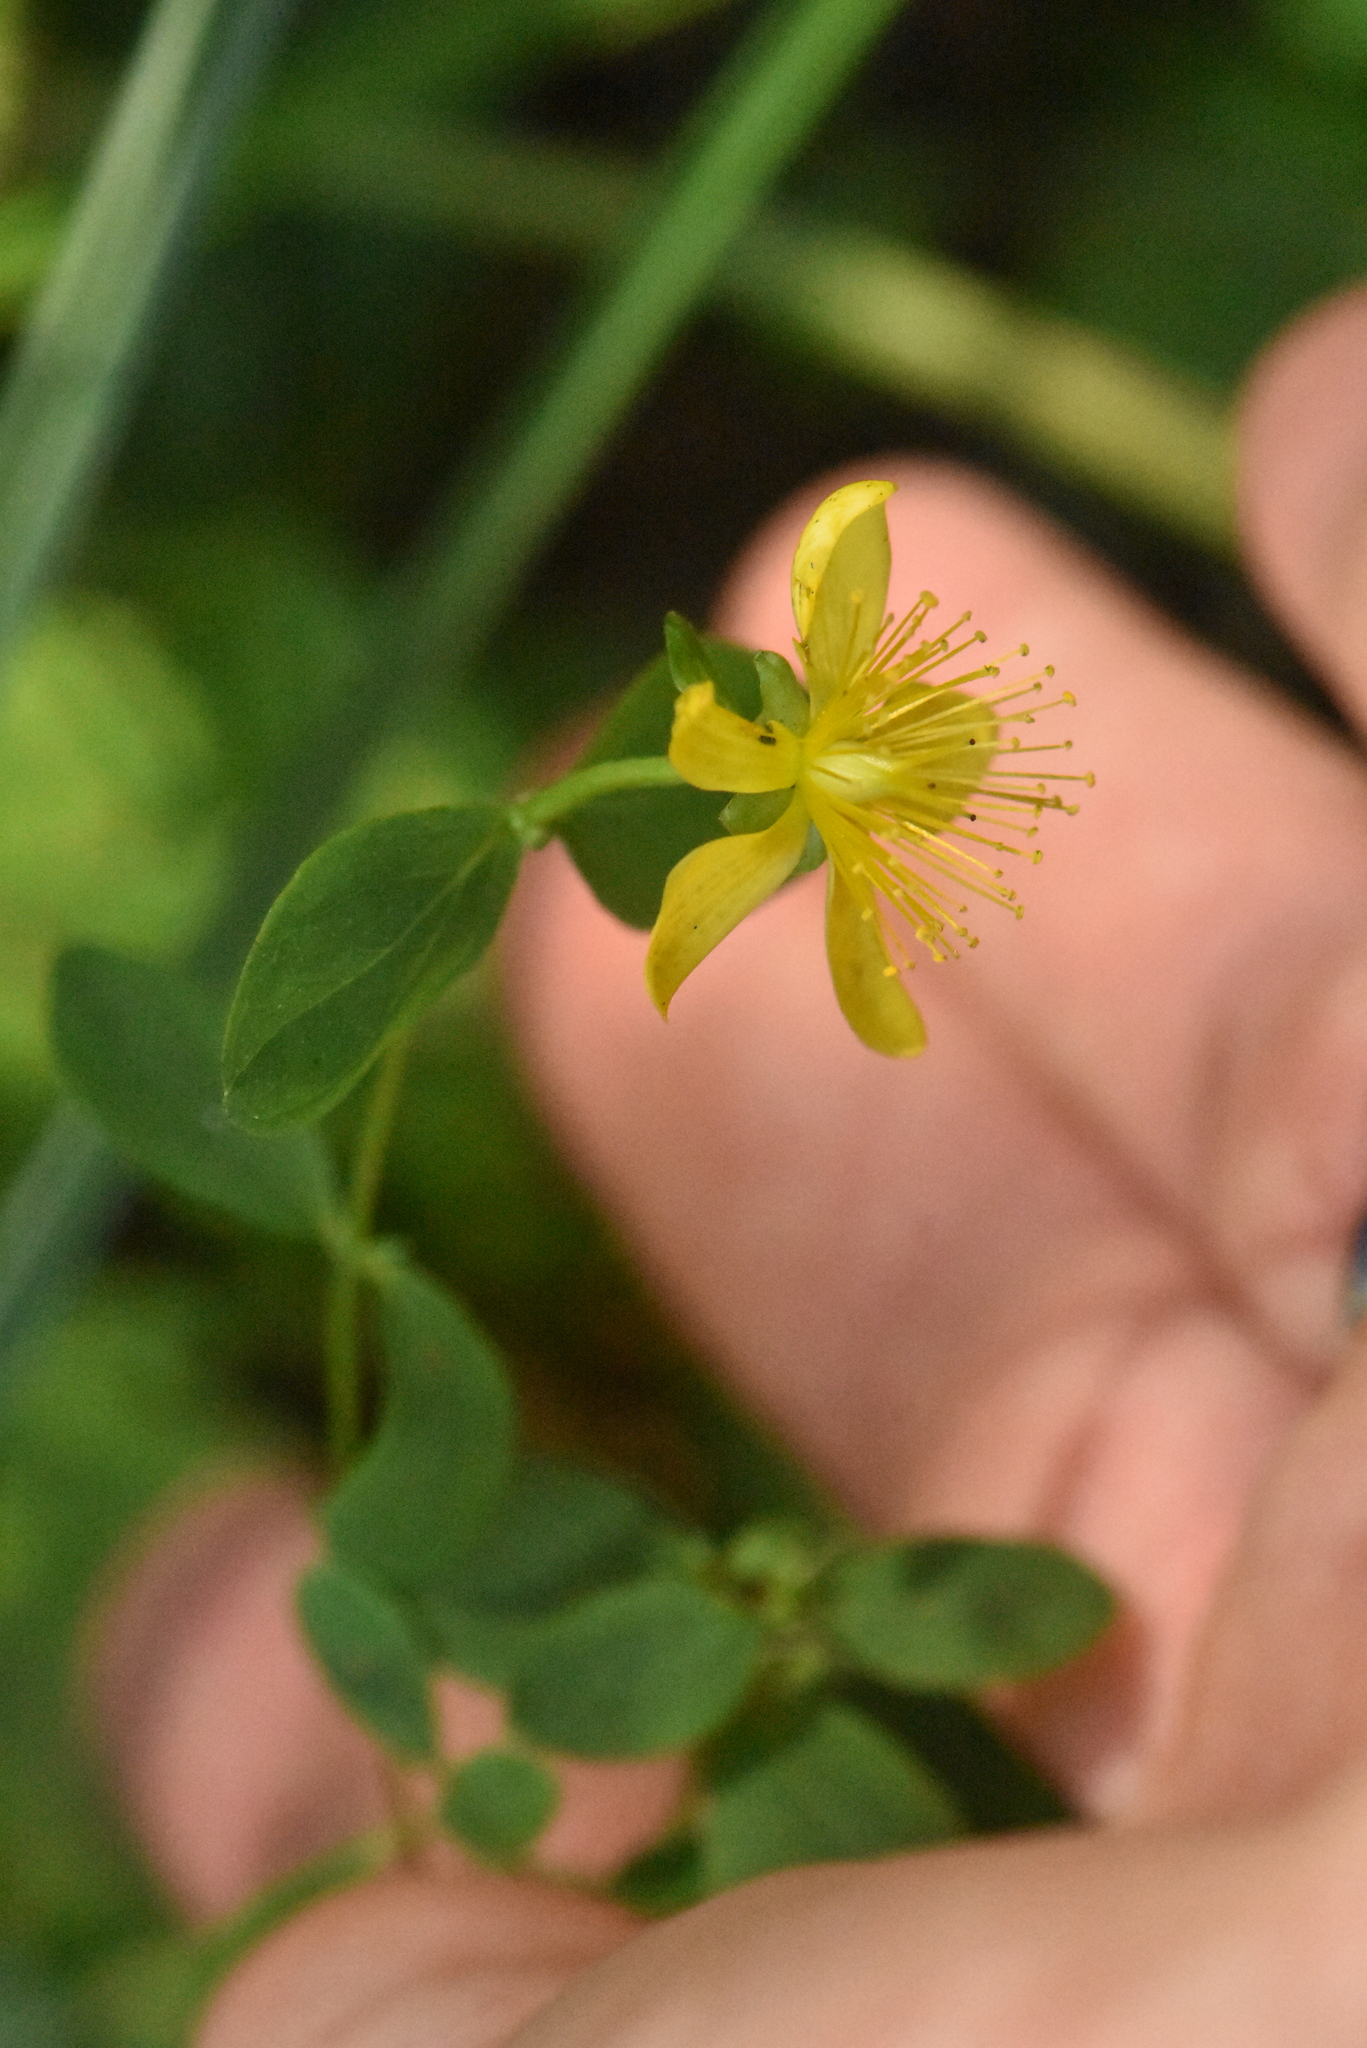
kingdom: Plantae
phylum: Tracheophyta
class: Magnoliopsida
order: Malpighiales
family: Hypericaceae
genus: Hypericum
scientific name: Hypericum maculatum
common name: Imperforate st. john's-wort
